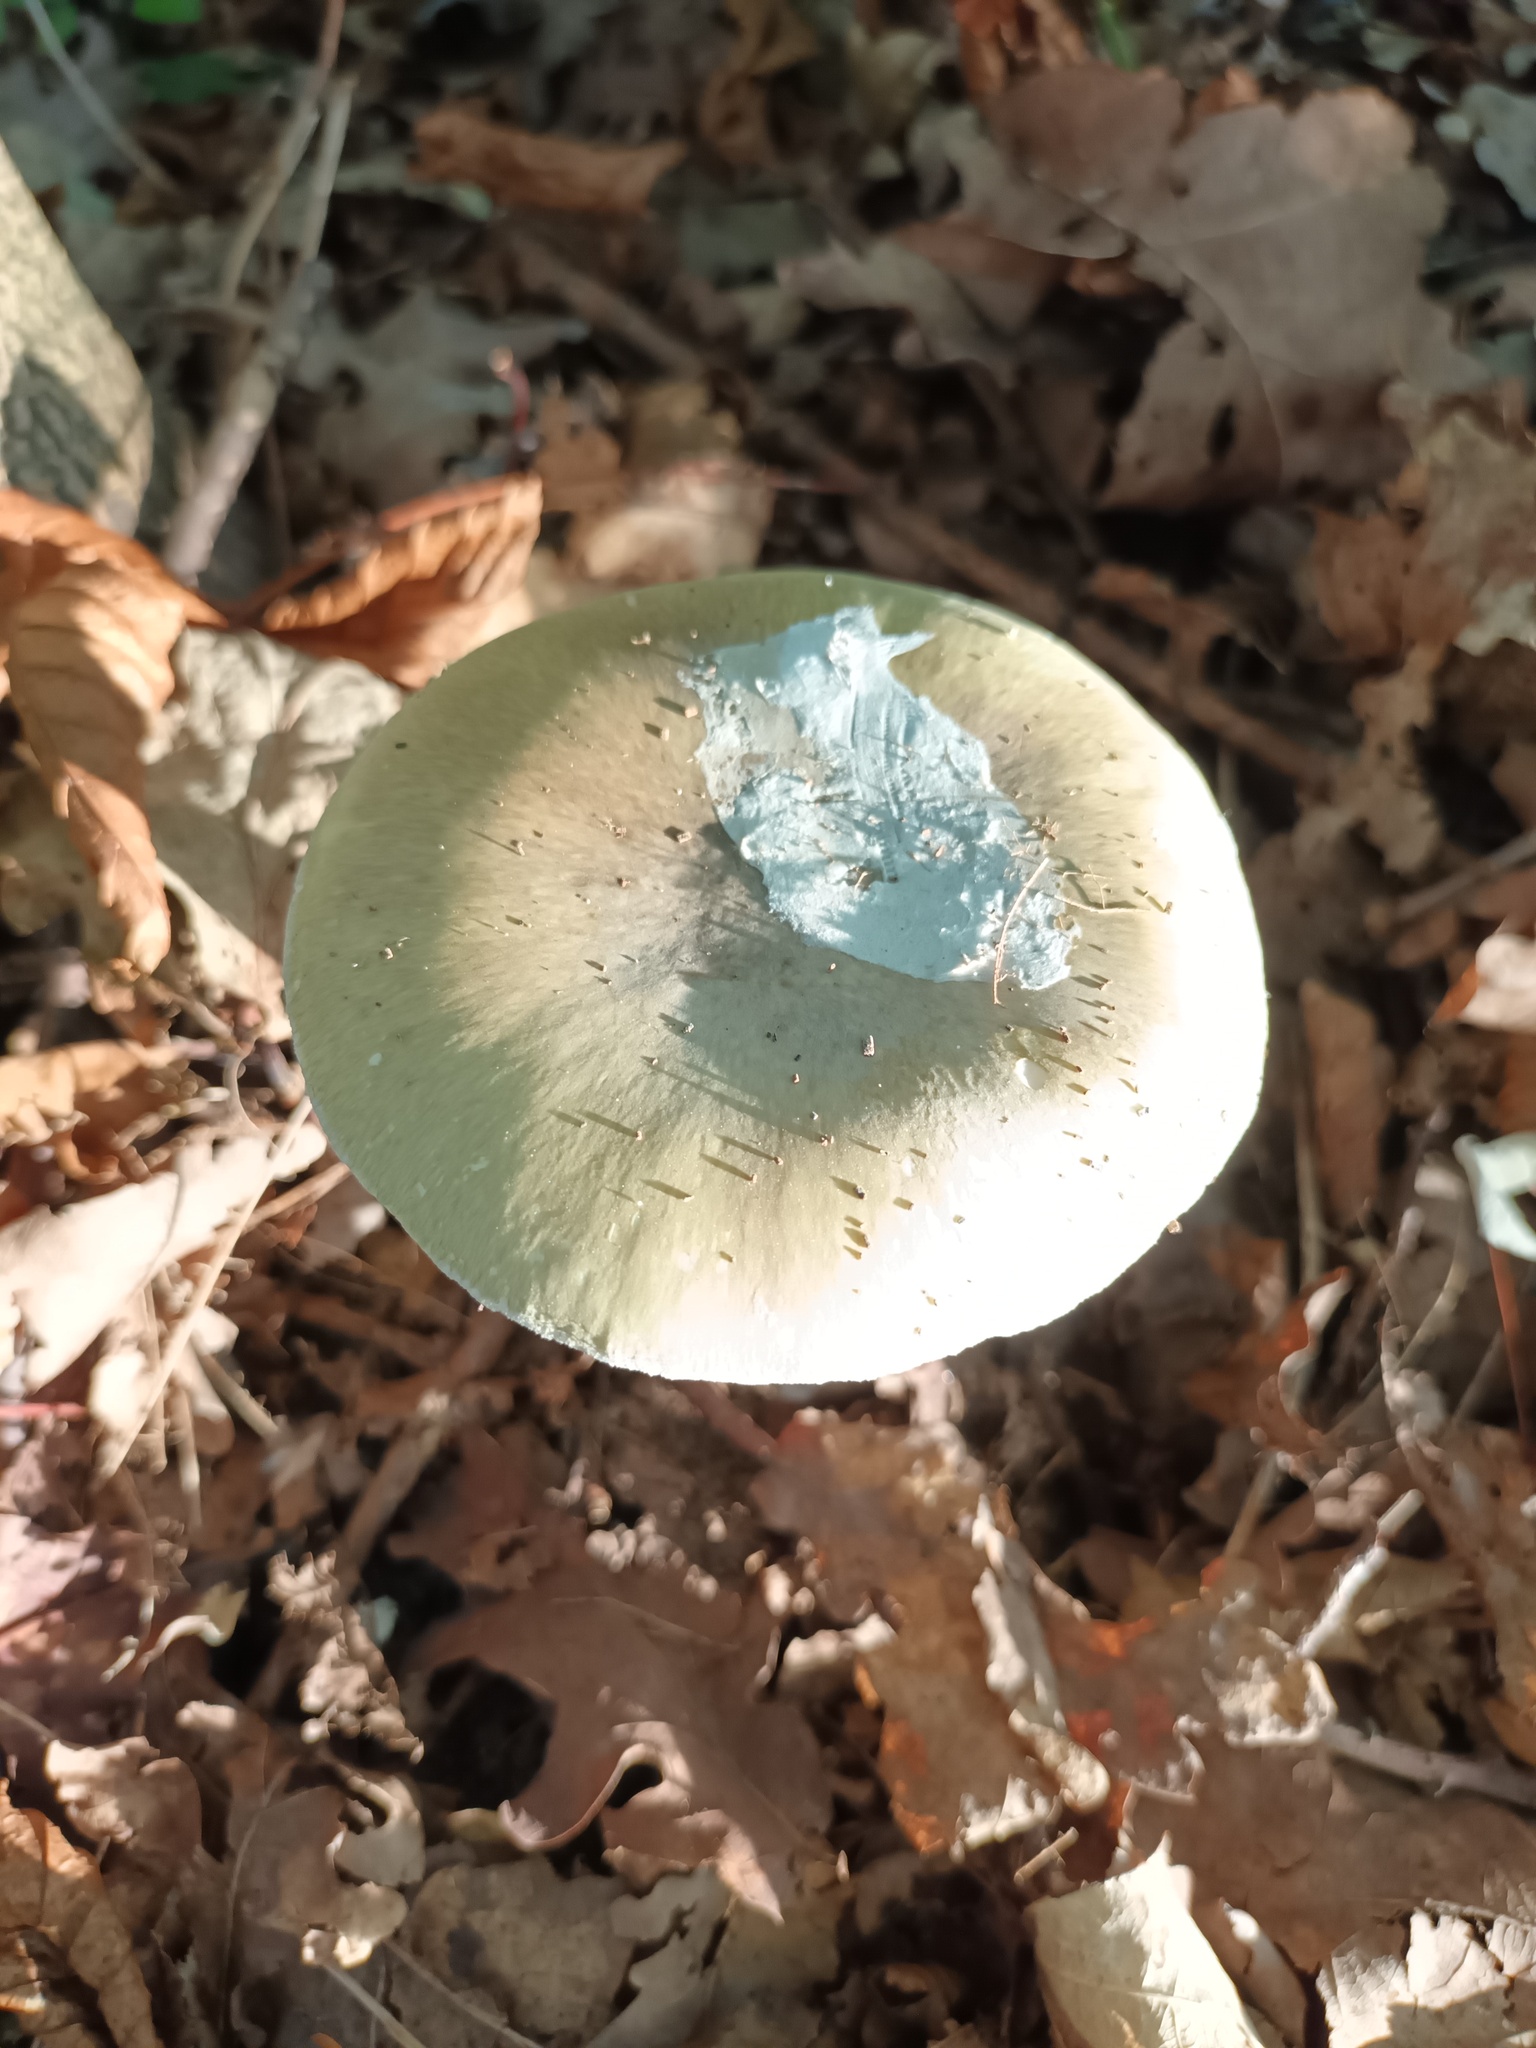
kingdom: Fungi
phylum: Basidiomycota
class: Agaricomycetes
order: Agaricales
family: Amanitaceae
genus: Amanita
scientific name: Amanita phalloides
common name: Death cap
